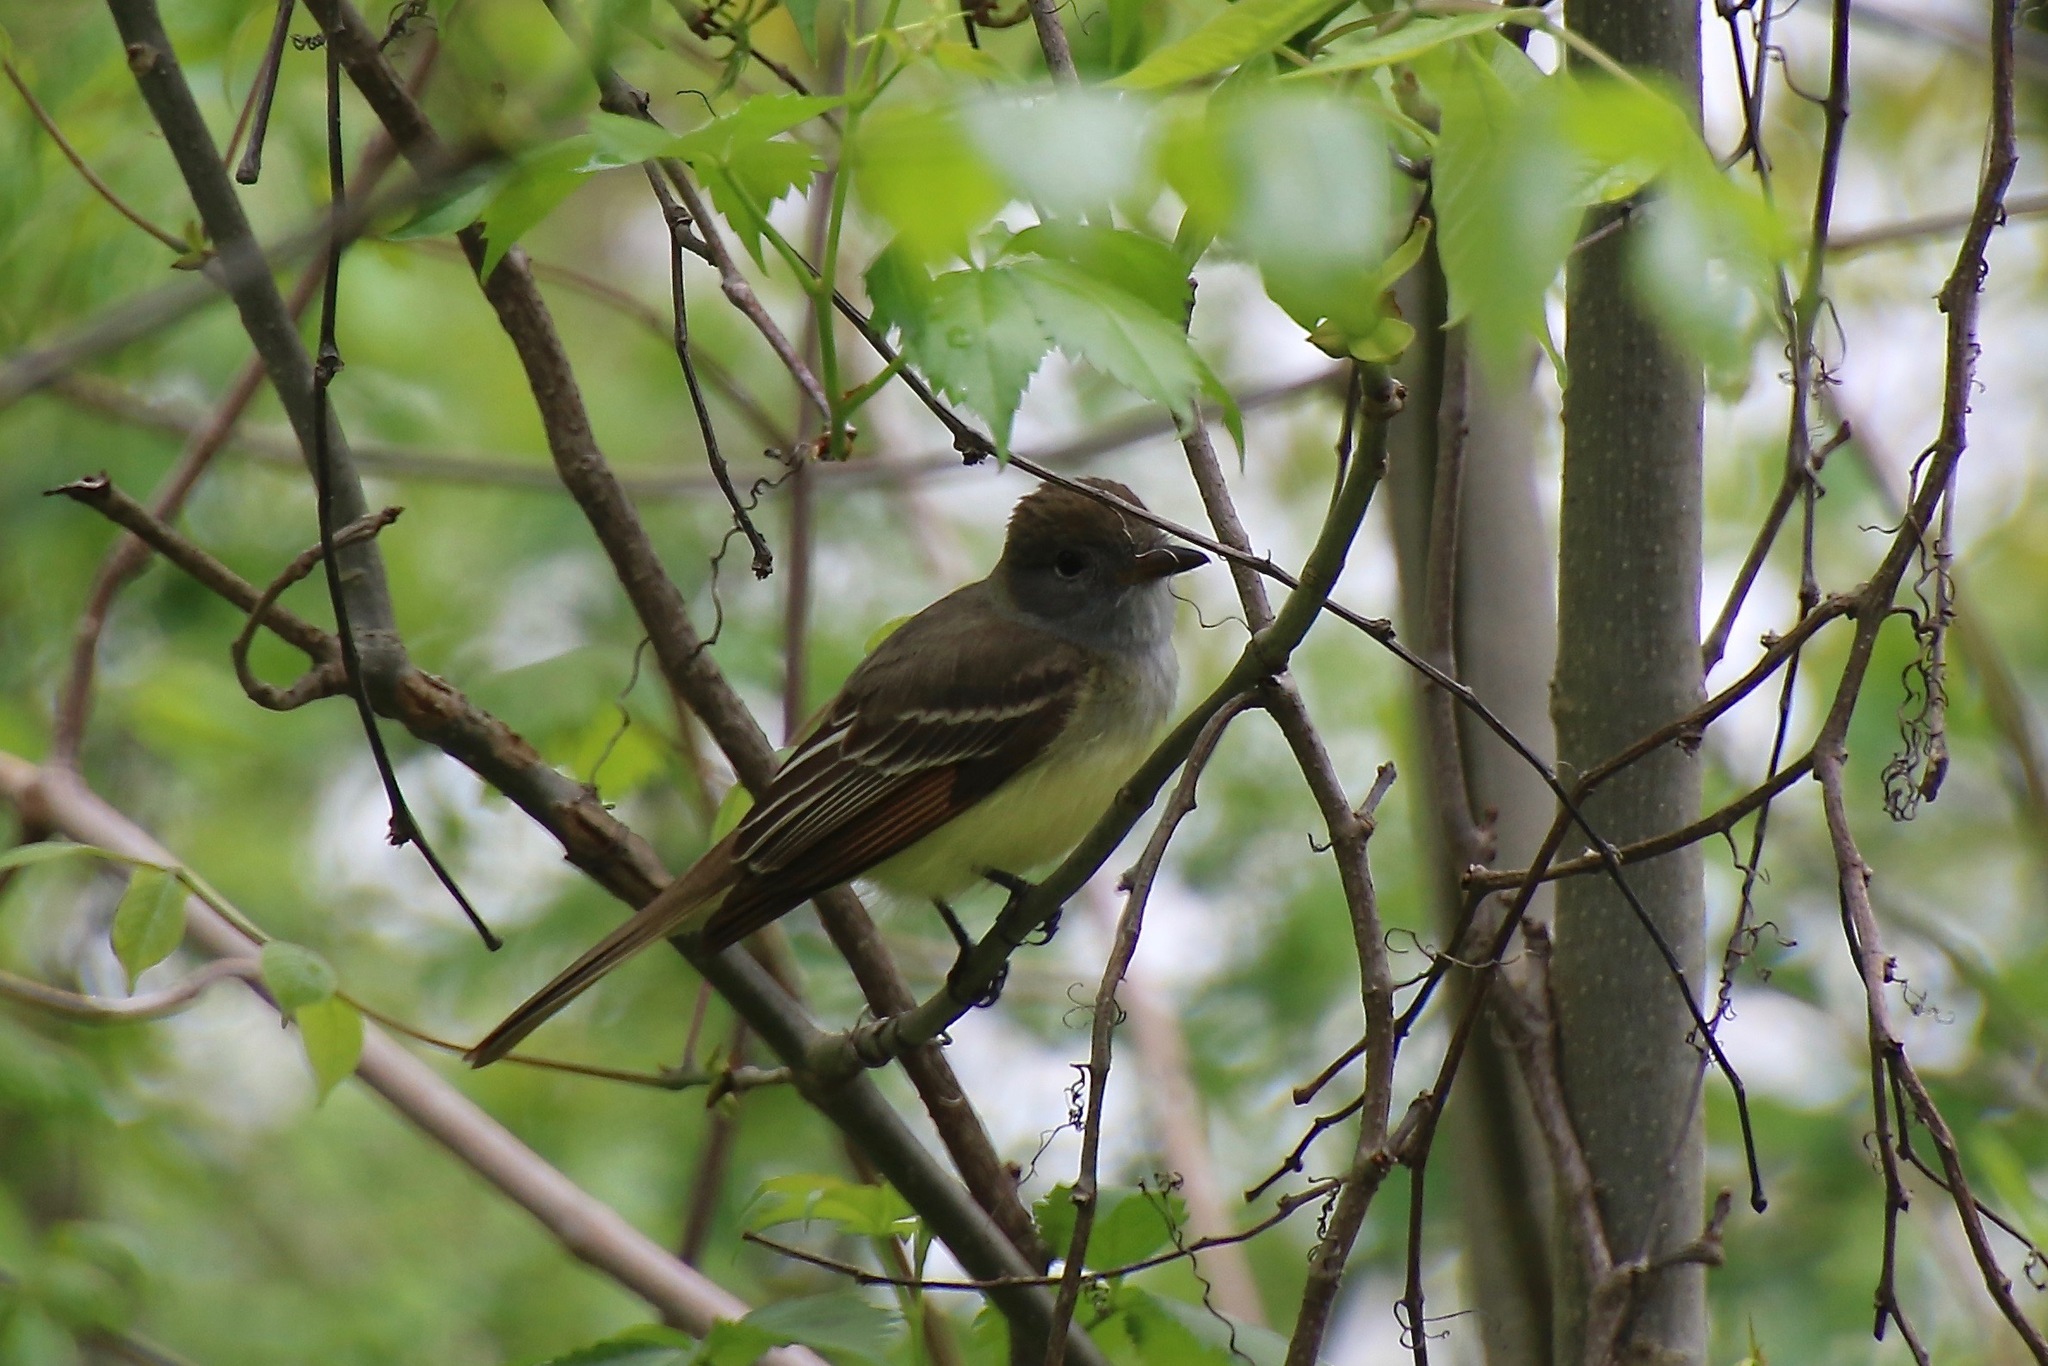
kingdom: Animalia
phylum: Chordata
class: Aves
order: Passeriformes
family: Tyrannidae
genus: Myiarchus
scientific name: Myiarchus crinitus
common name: Great crested flycatcher
